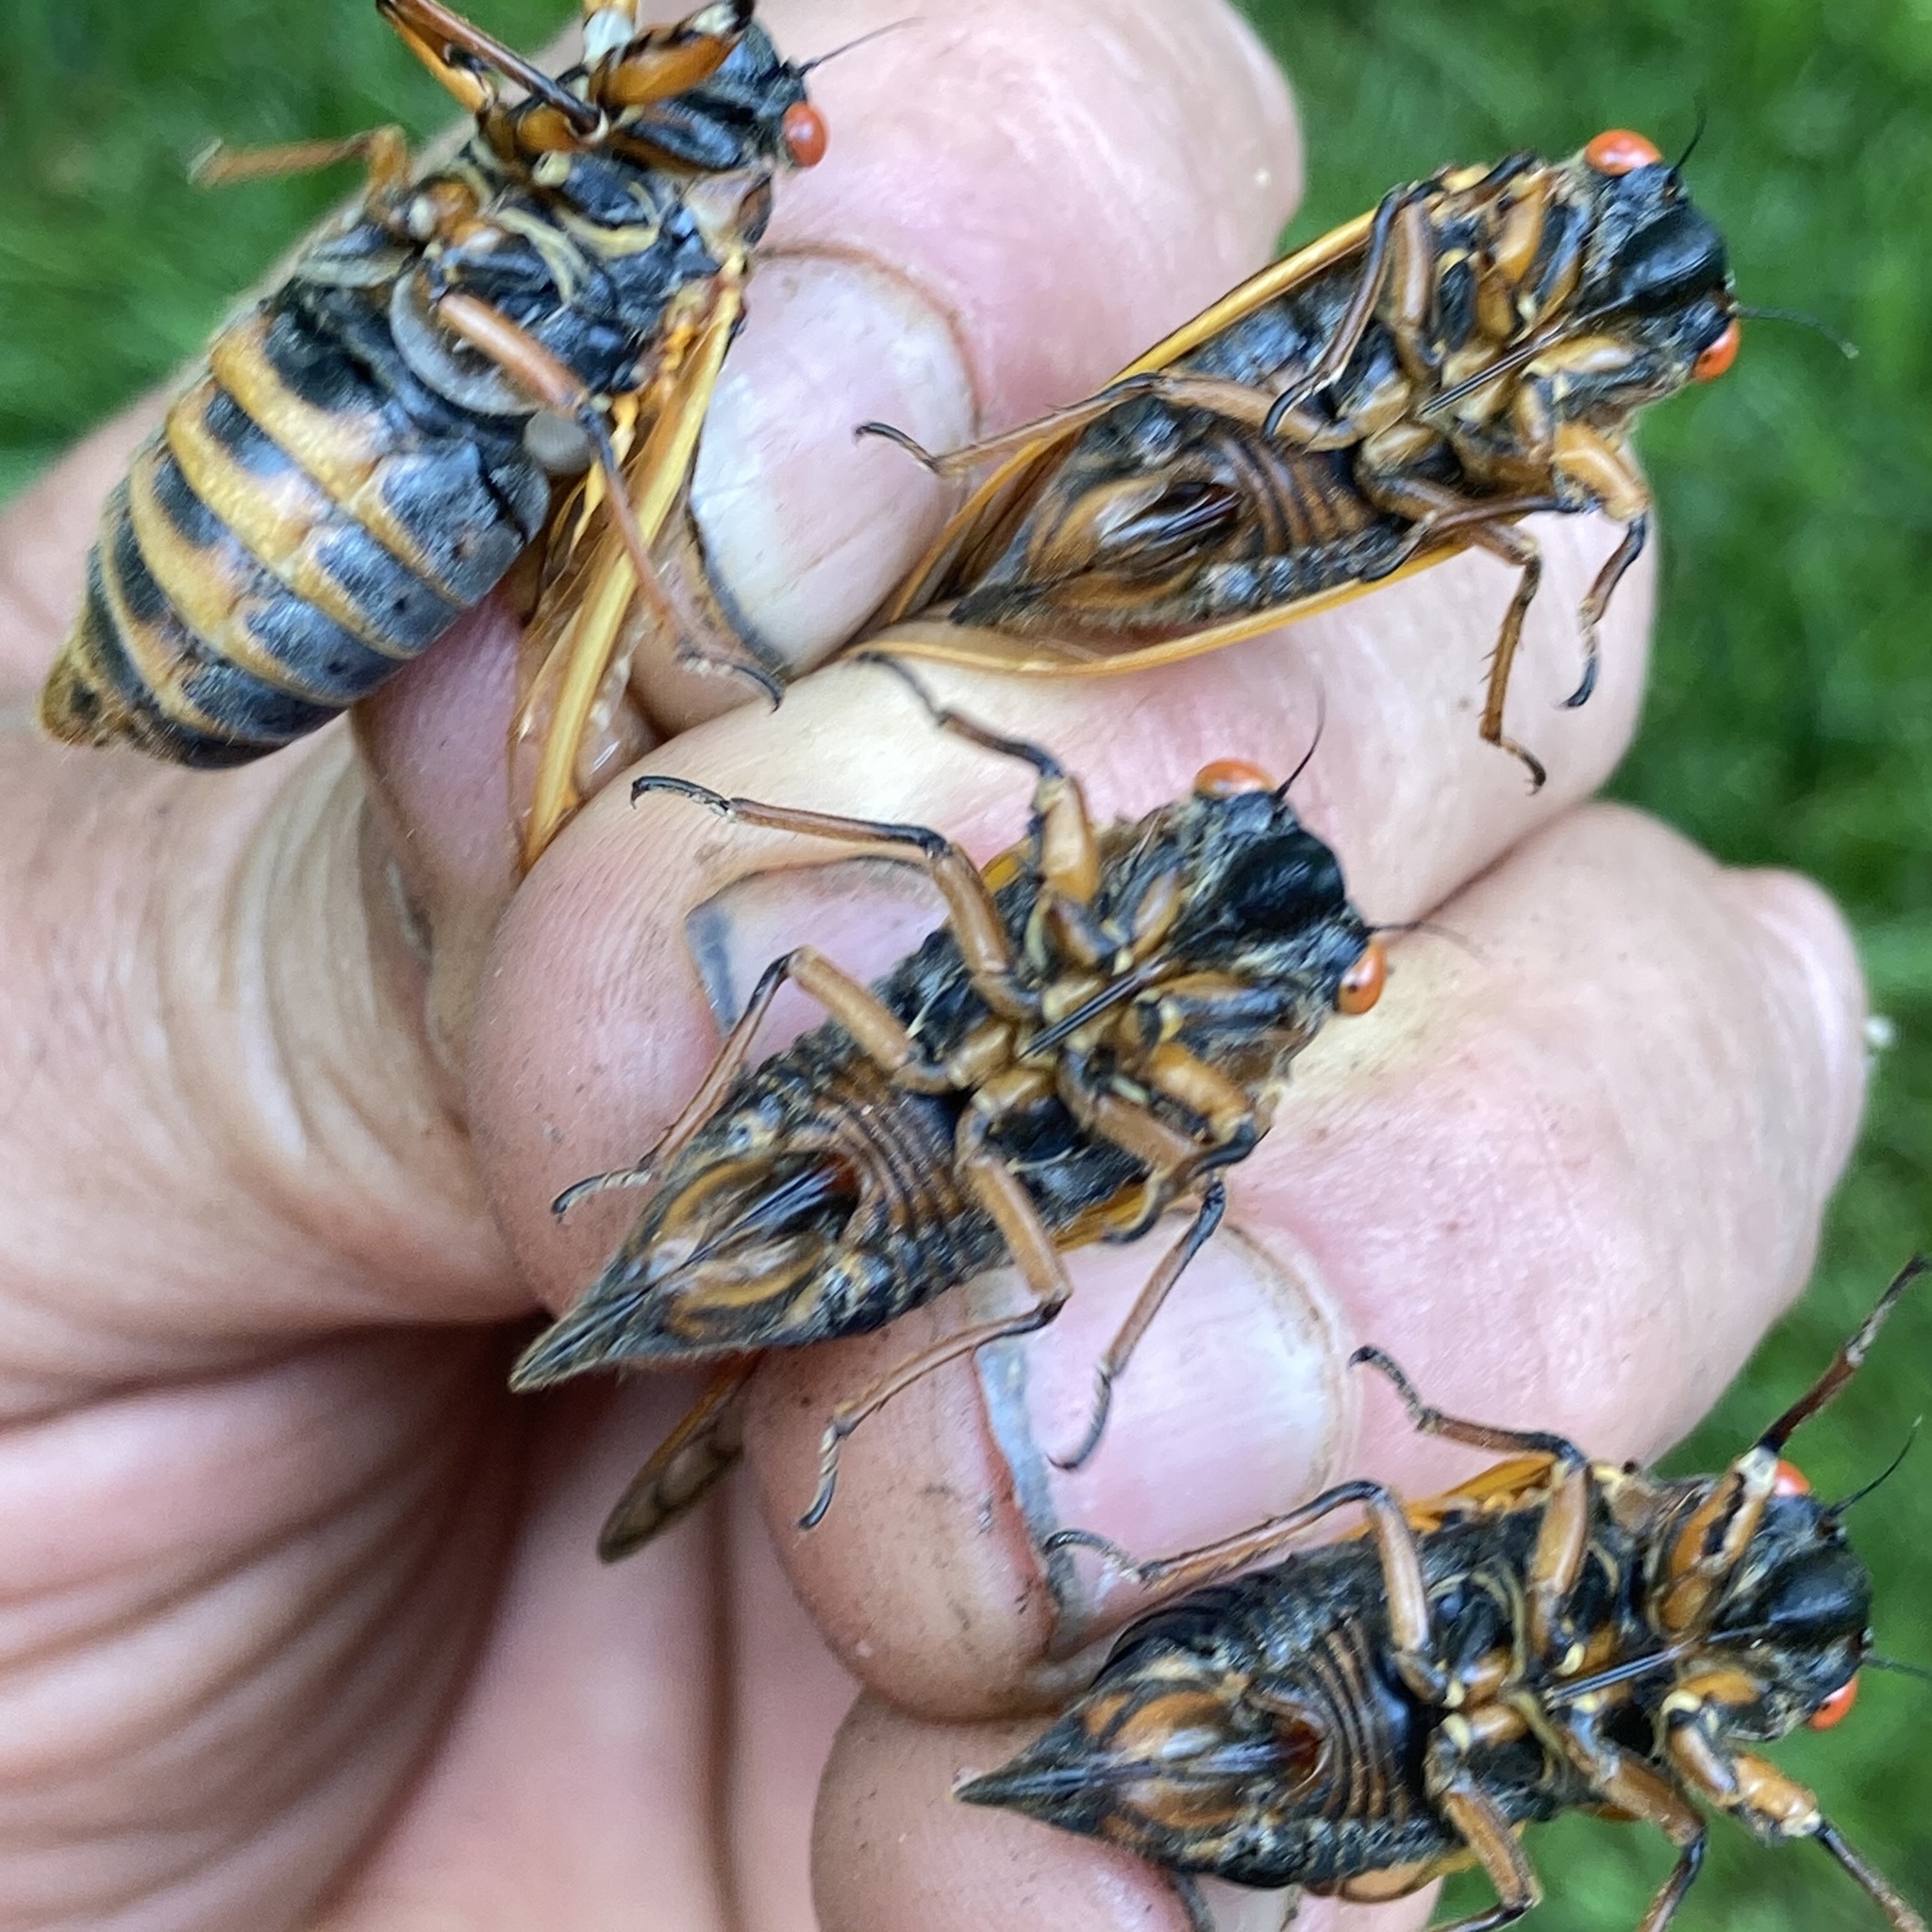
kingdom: Animalia
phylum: Arthropoda
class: Insecta
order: Hemiptera
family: Cicadidae
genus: Magicicada
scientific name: Magicicada septendecim
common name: Periodical cicada
